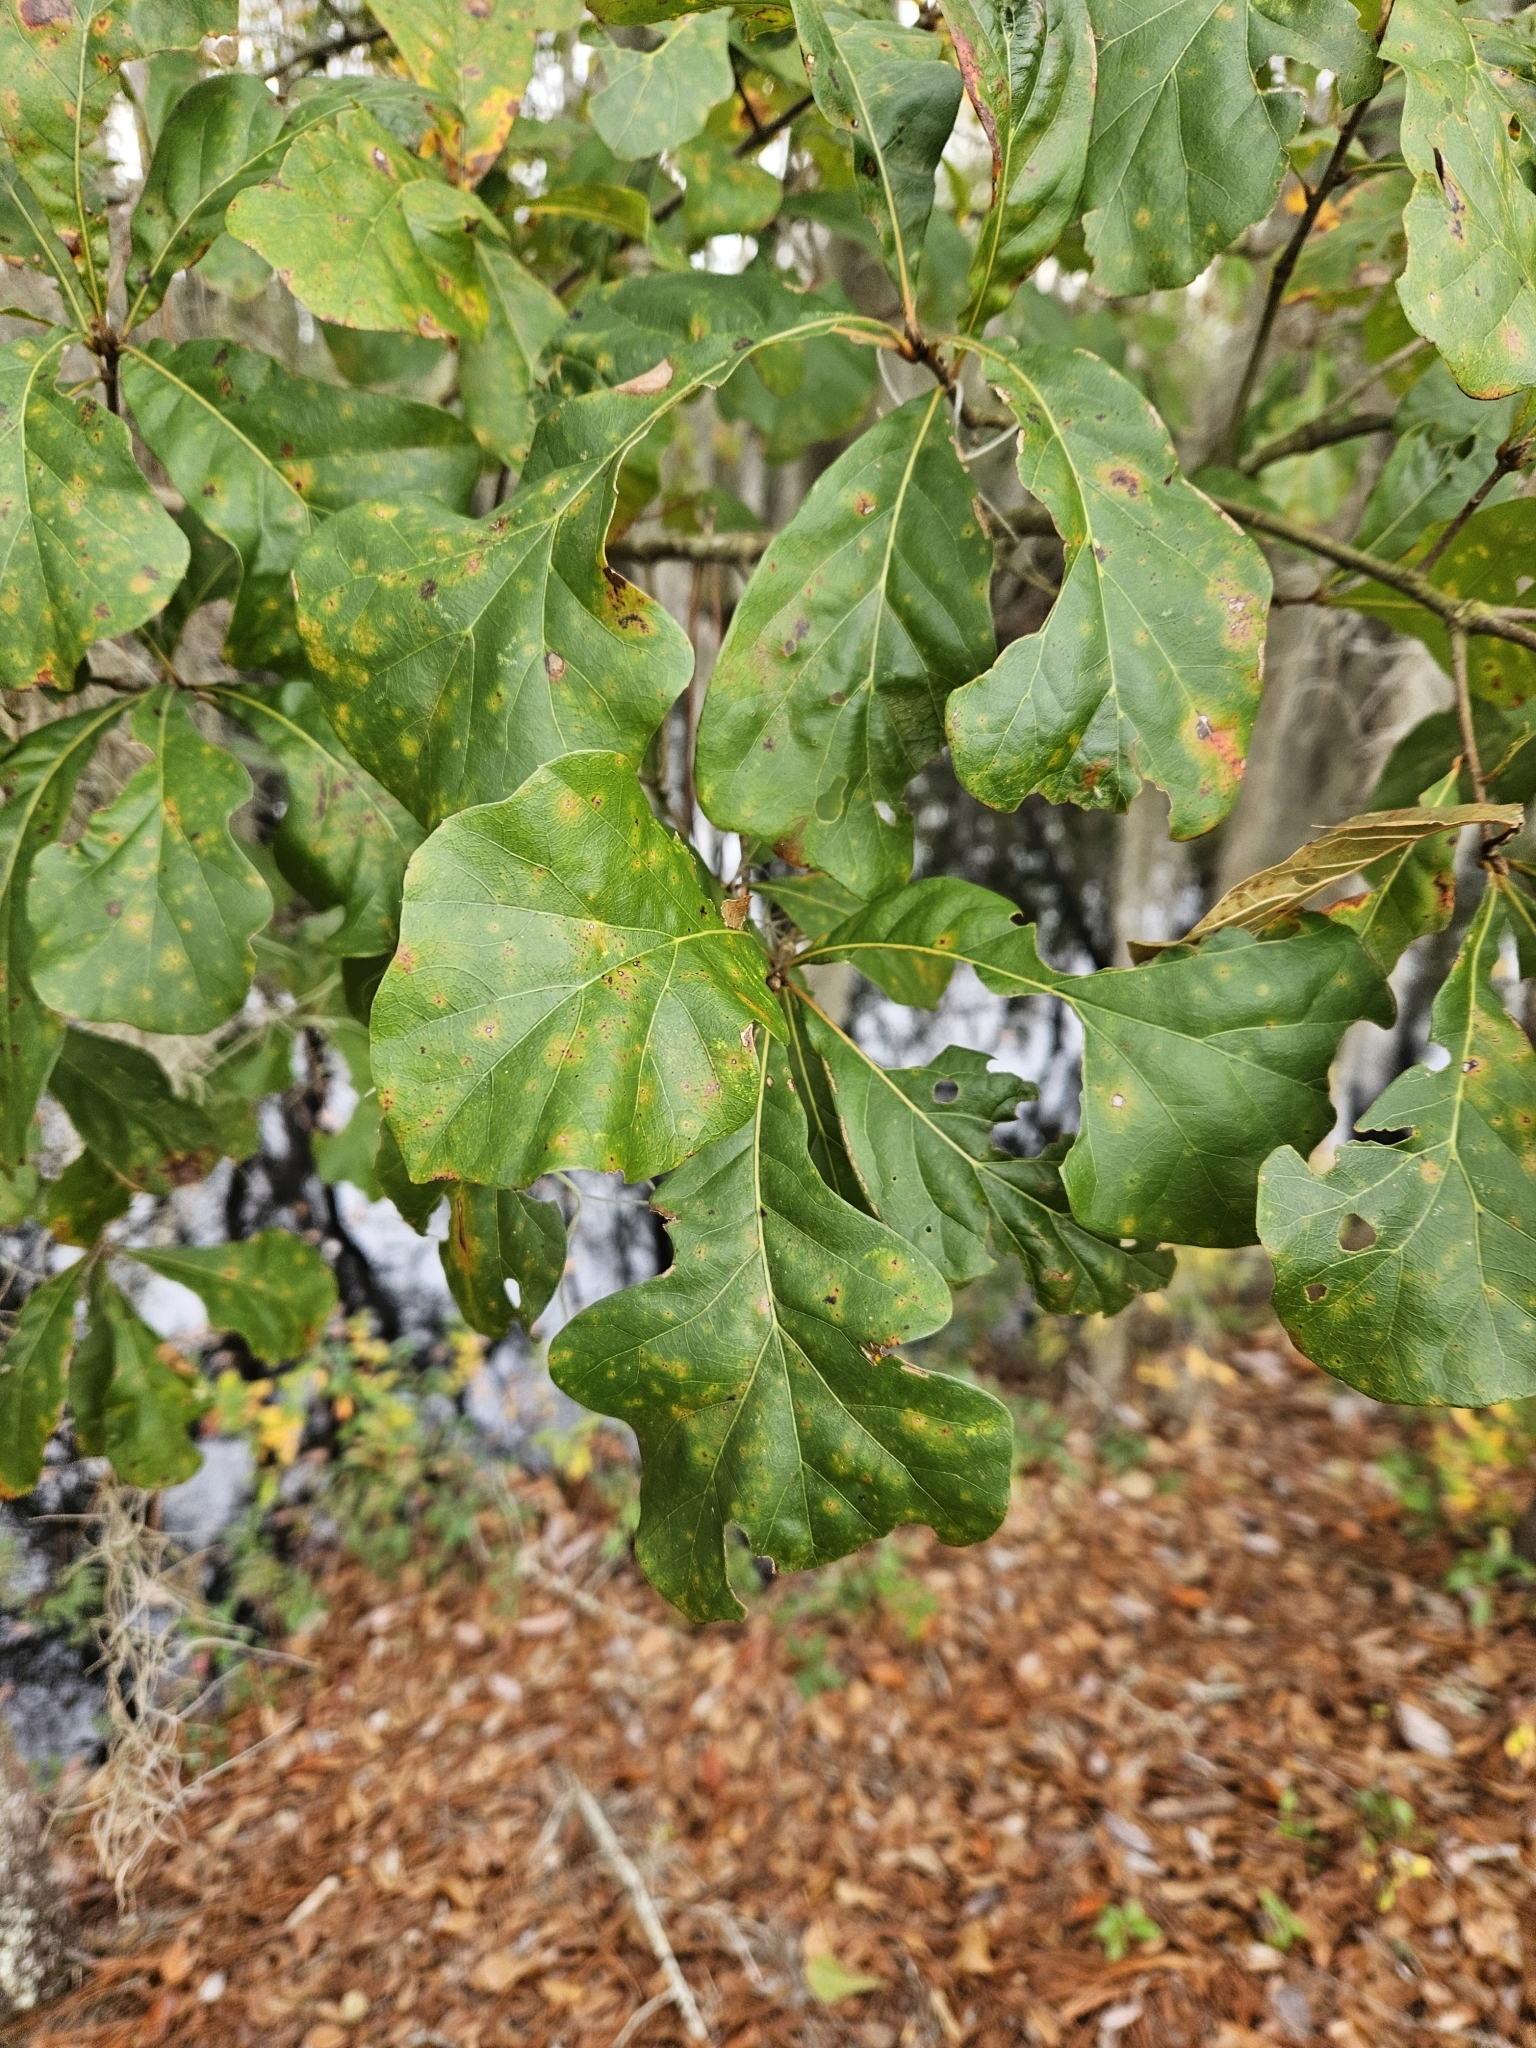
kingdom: Plantae
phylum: Tracheophyta
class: Magnoliopsida
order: Fagales
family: Fagaceae
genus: Quercus
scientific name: Quercus nigra
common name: Water oak
